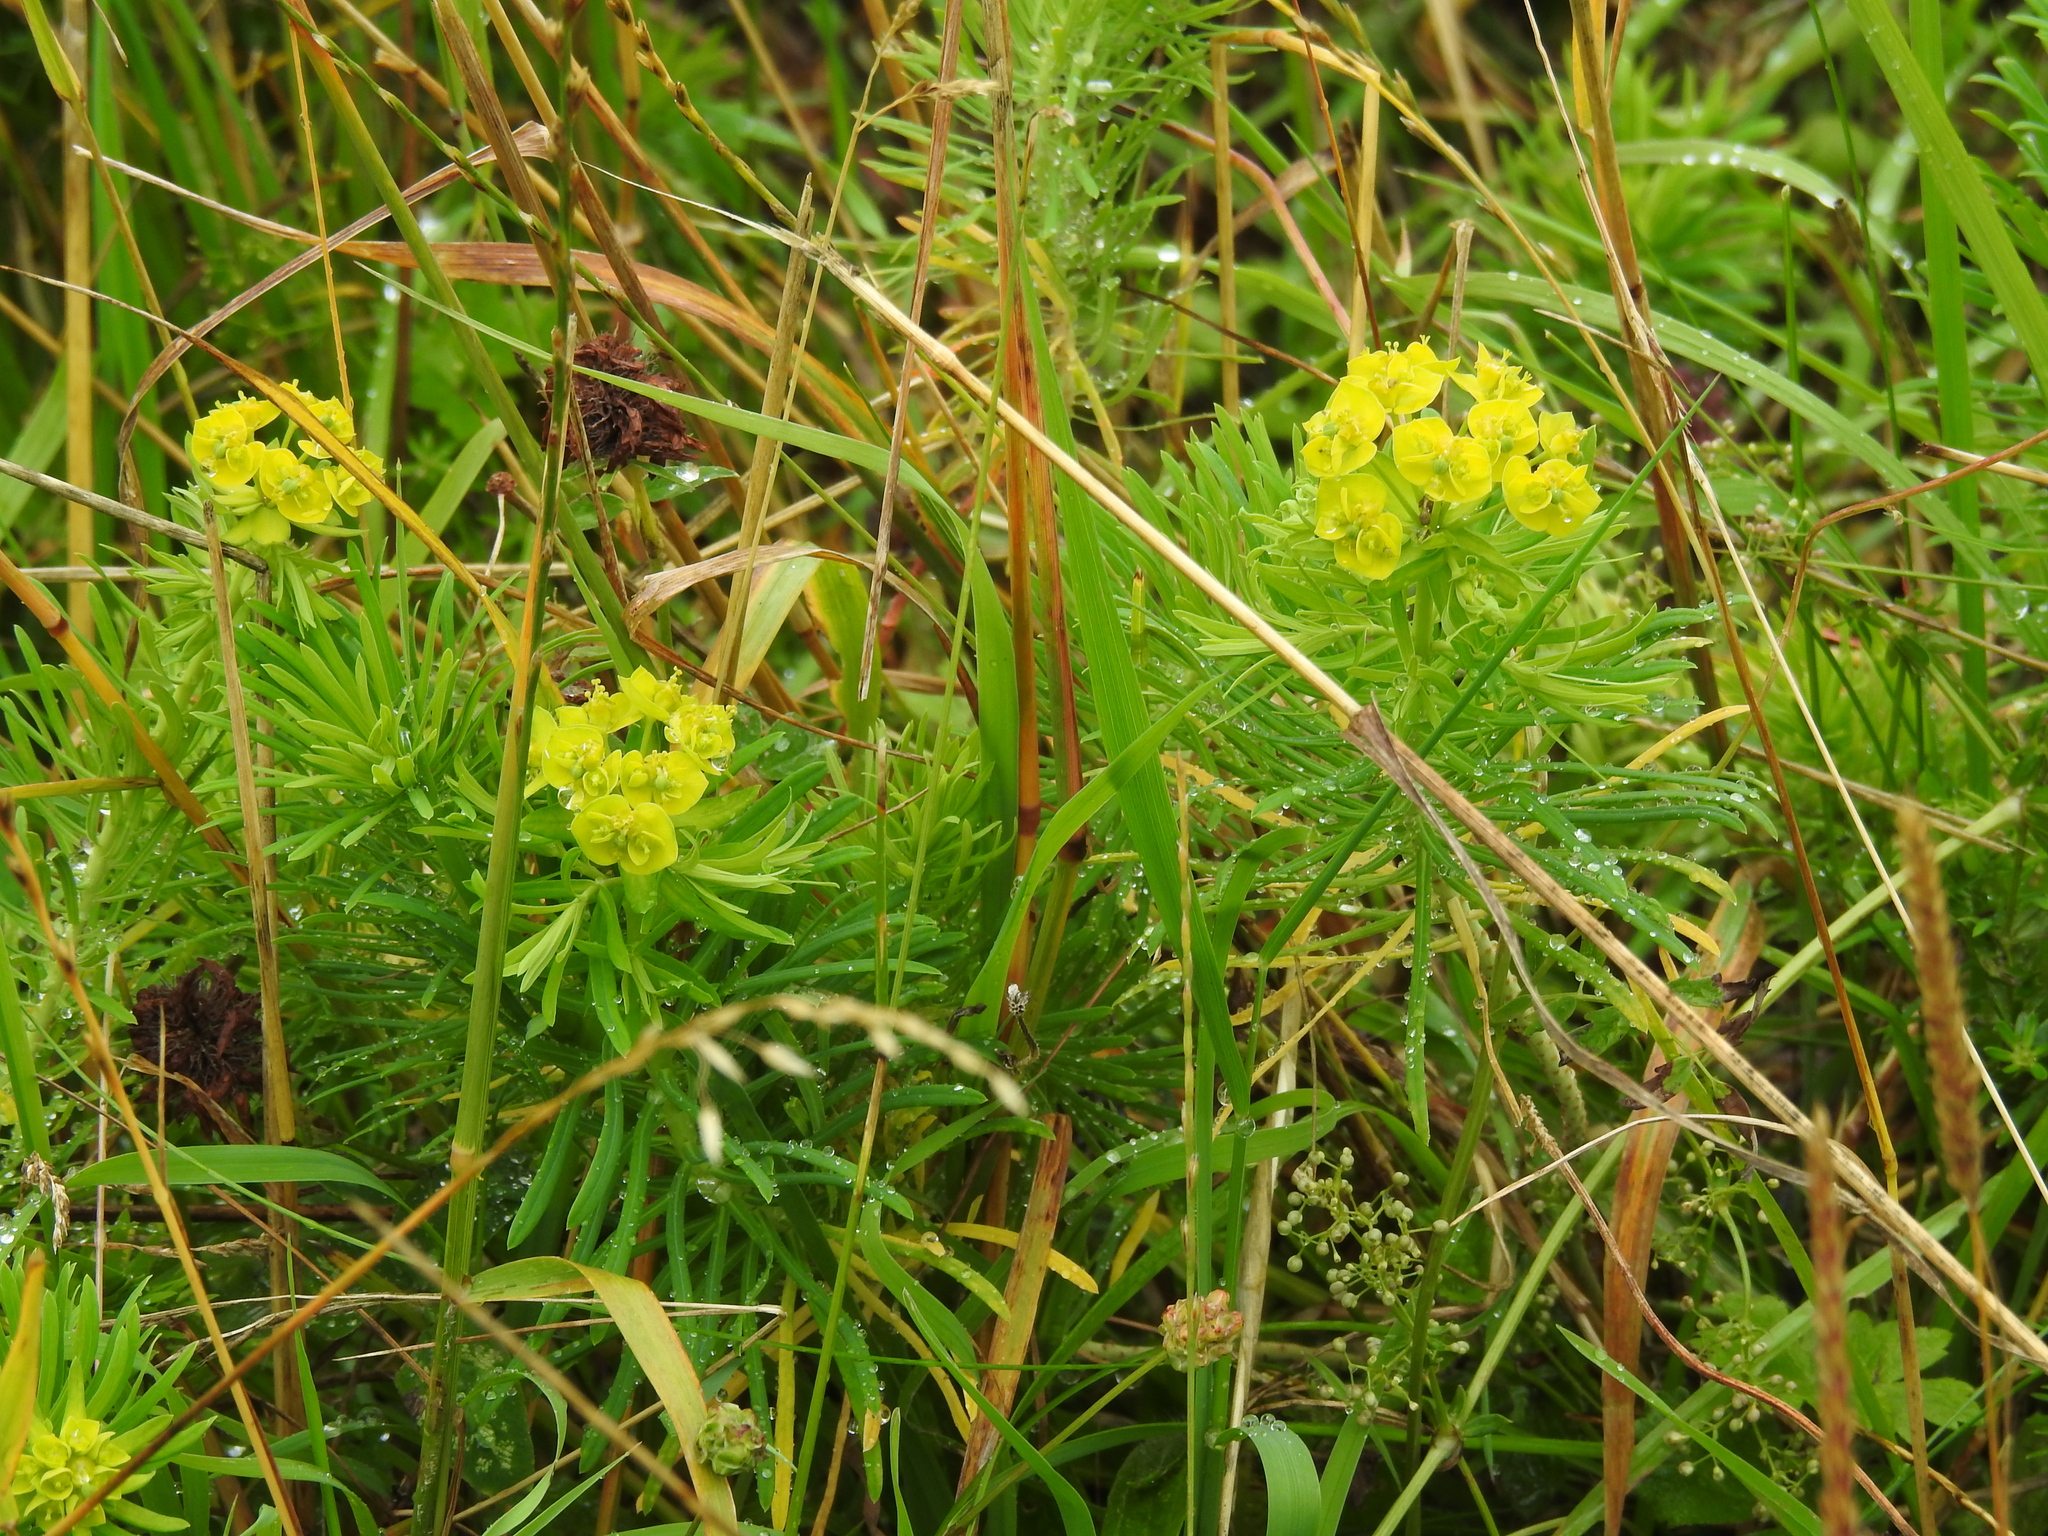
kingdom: Plantae
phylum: Tracheophyta
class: Magnoliopsida
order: Malpighiales
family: Euphorbiaceae
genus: Euphorbia
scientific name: Euphorbia cyparissias
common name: Cypress spurge
